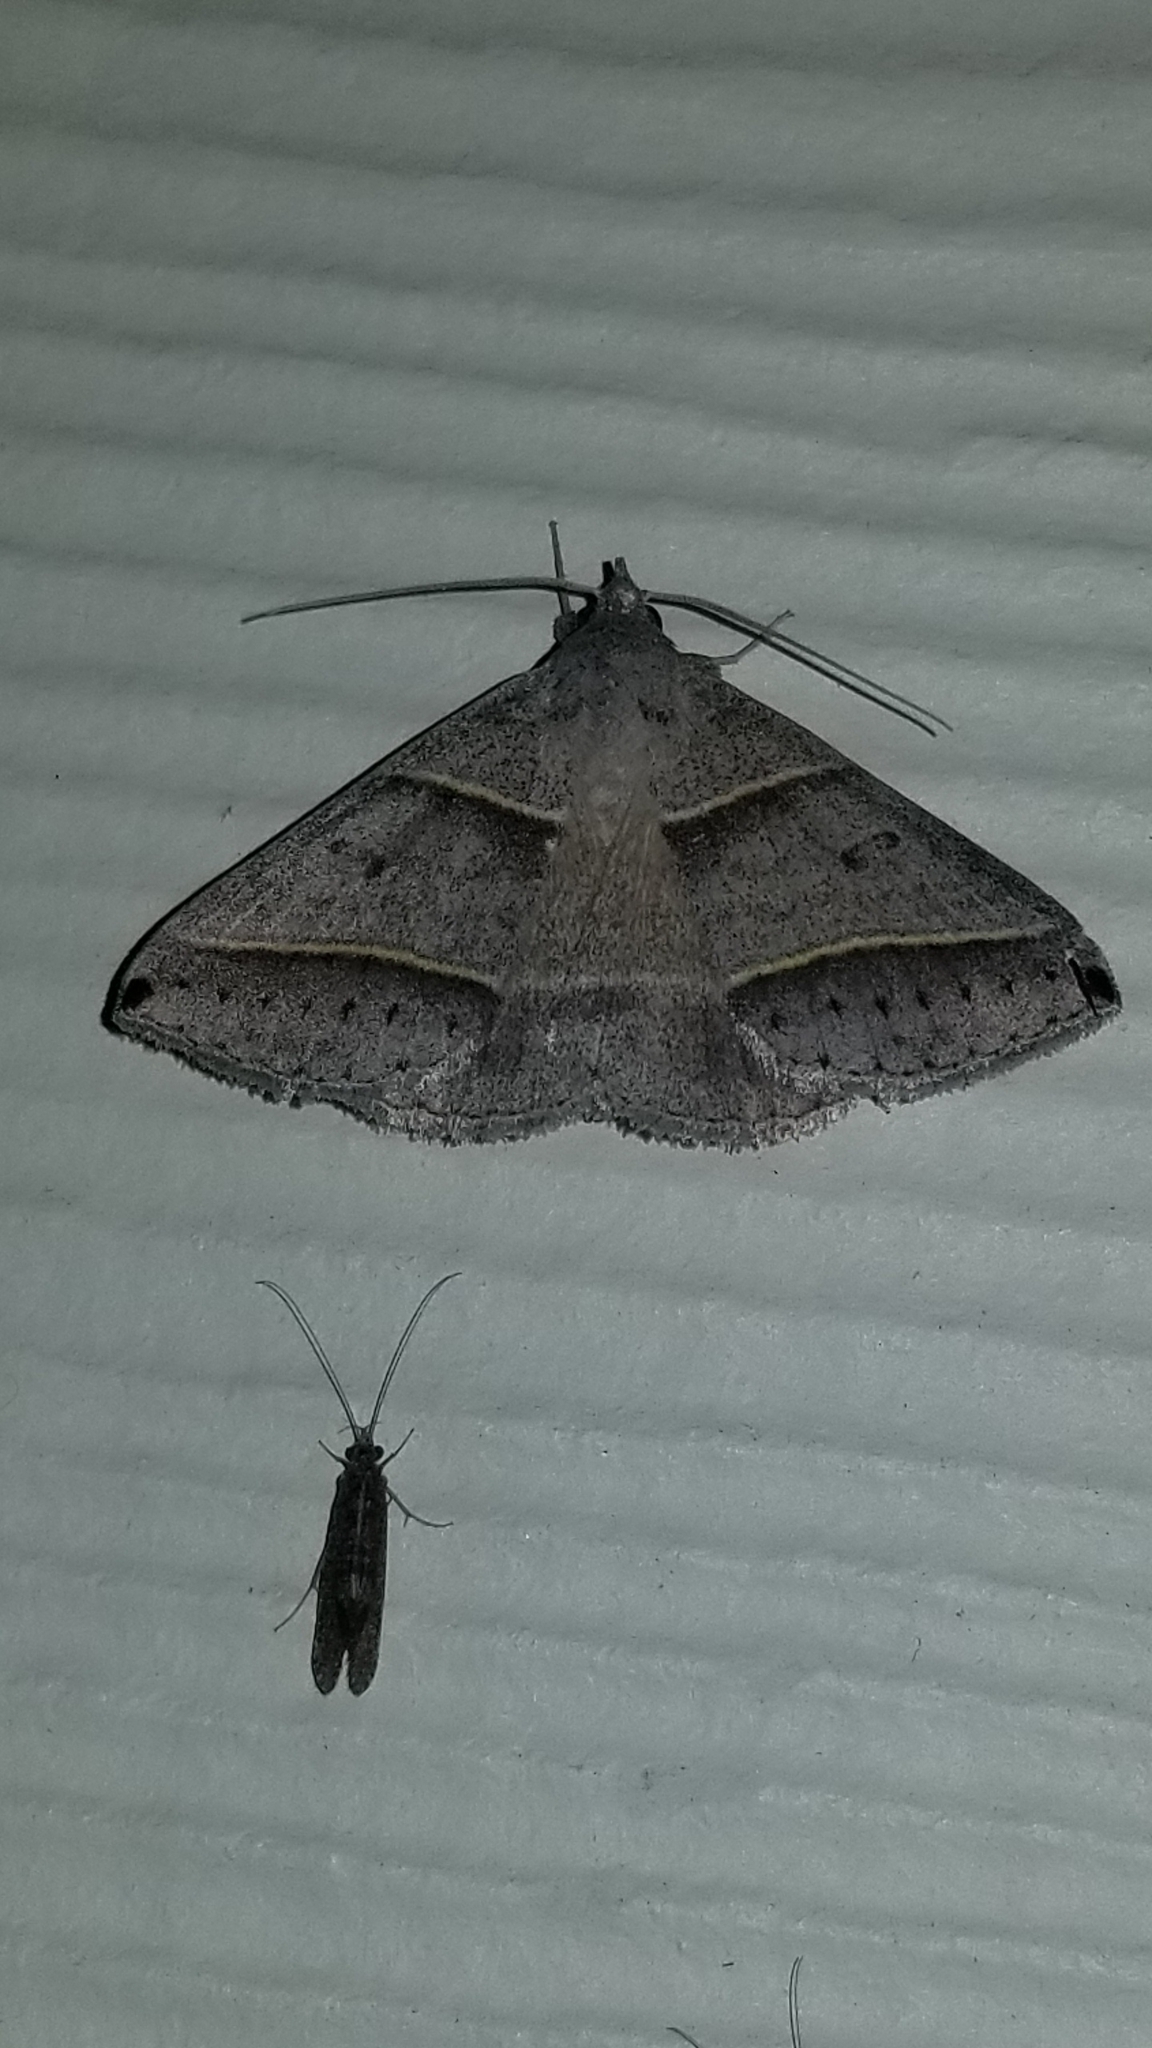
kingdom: Animalia
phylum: Arthropoda
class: Insecta
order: Lepidoptera
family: Erebidae
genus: Ptichodis
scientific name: Ptichodis vinculum
